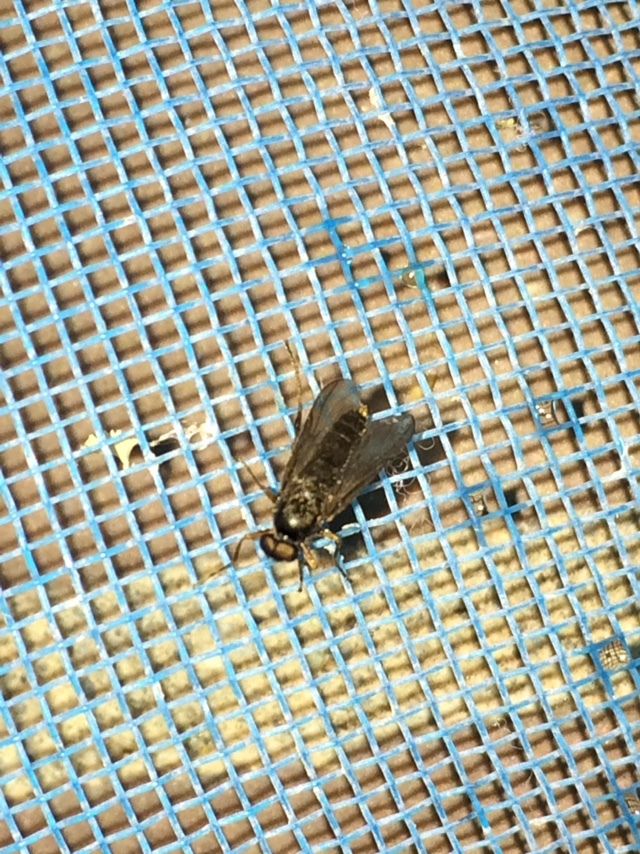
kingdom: Animalia
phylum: Arthropoda
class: Insecta
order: Diptera
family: Stratiomyidae
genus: Inopus
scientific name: Inopus rubriceps
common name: Soldier fly
